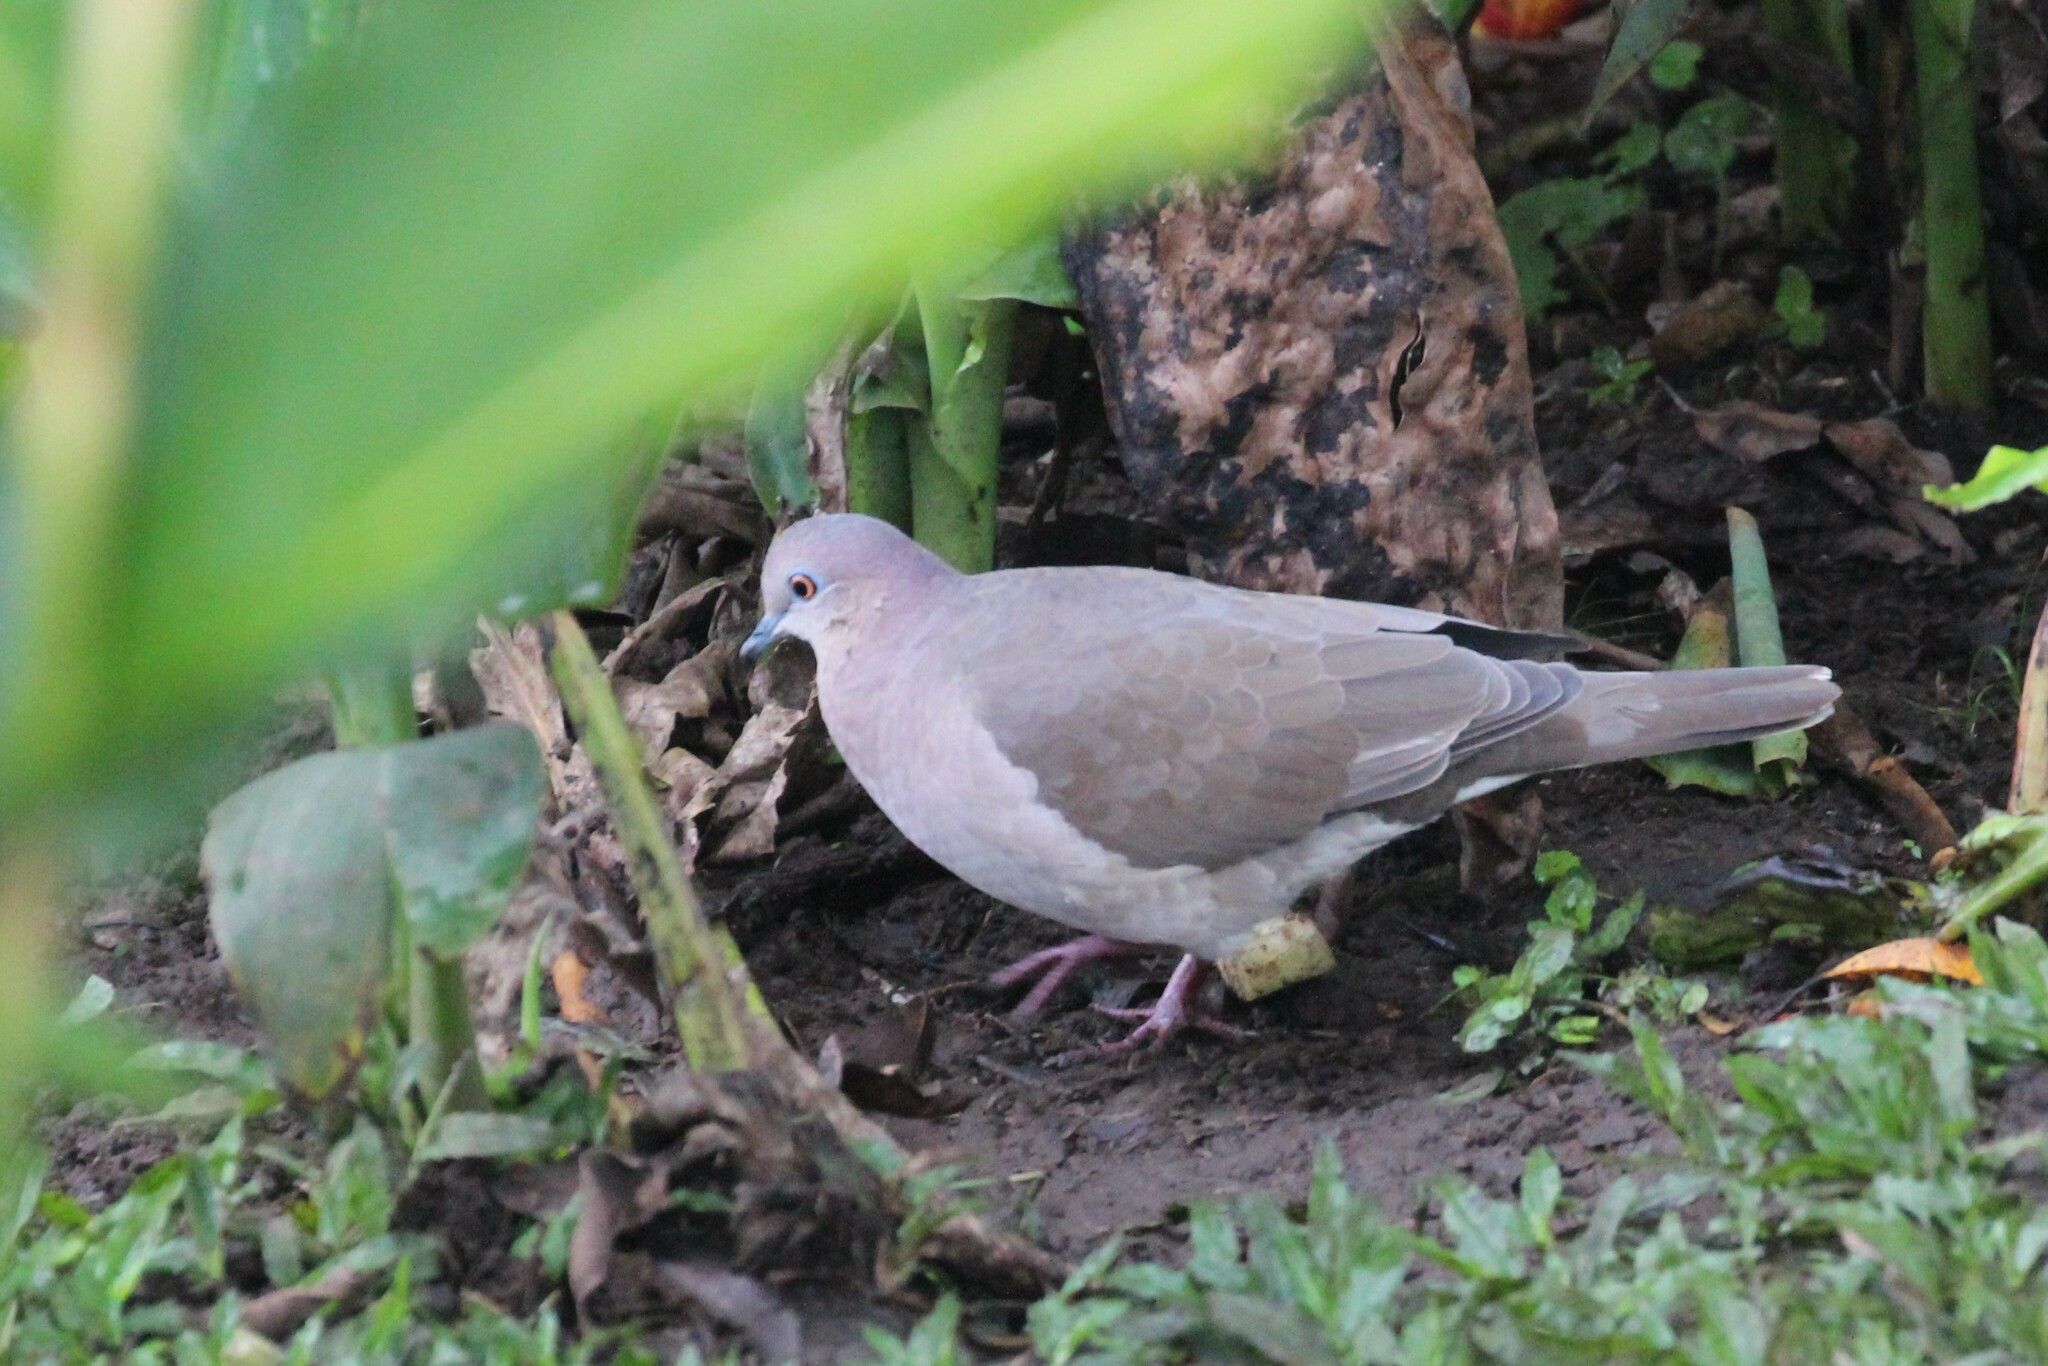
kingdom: Animalia
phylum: Chordata
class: Aves
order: Columbiformes
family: Columbidae
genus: Leptotila
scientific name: Leptotila verreauxi
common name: White-tipped dove
